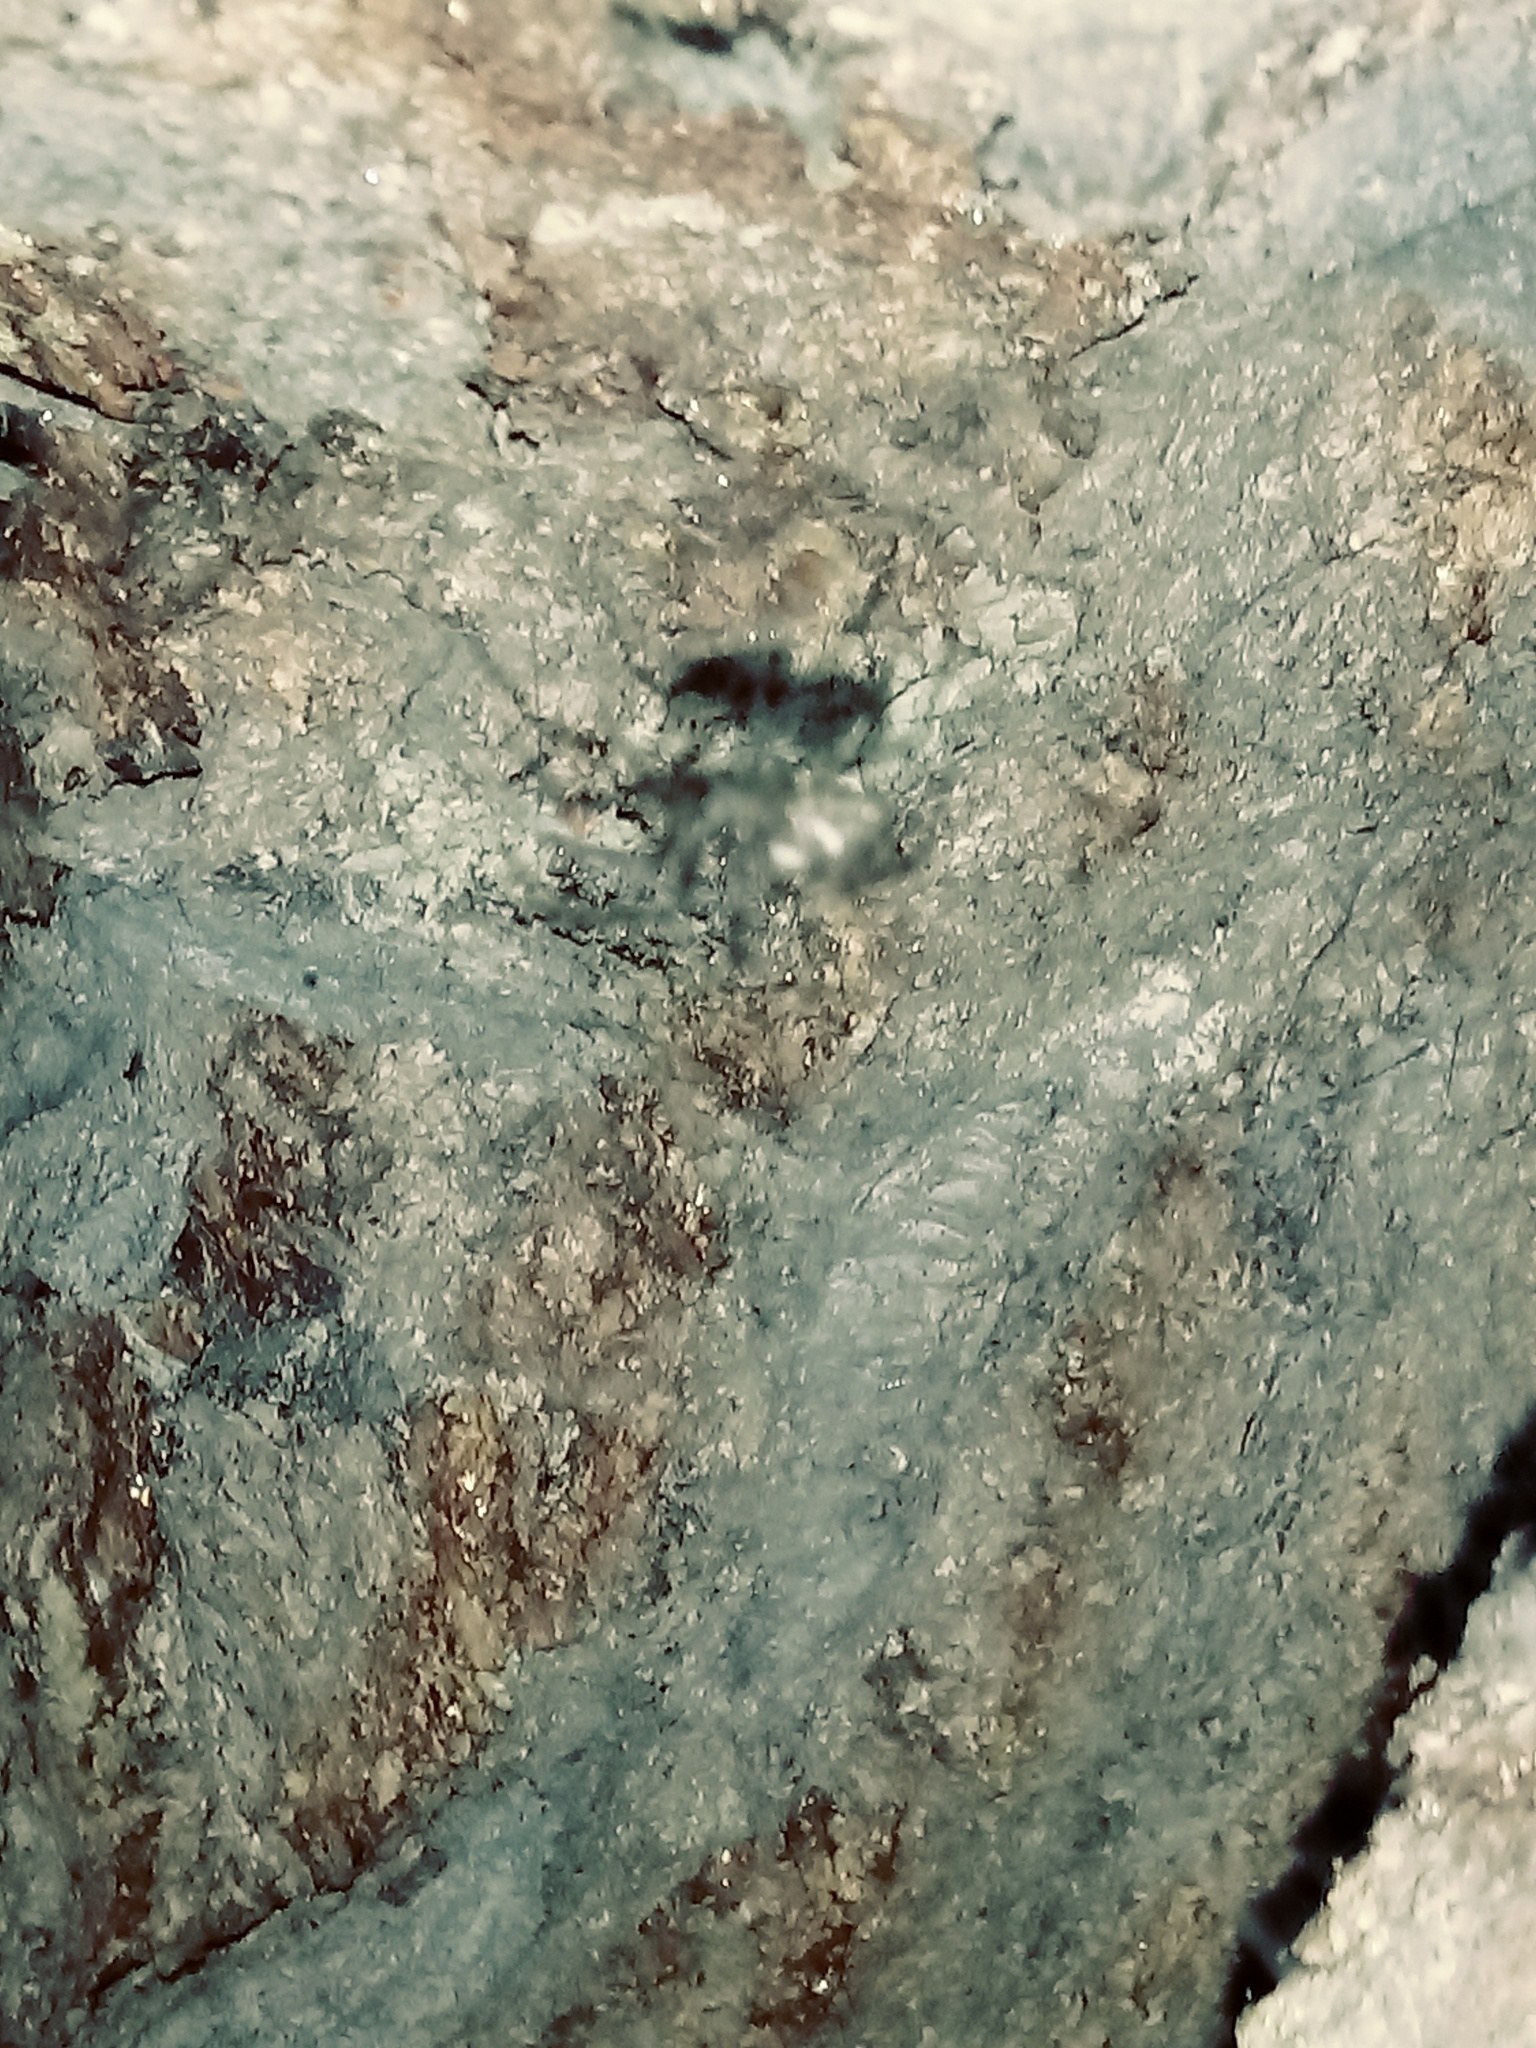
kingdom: Animalia
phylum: Arthropoda
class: Arachnida
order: Araneae
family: Theridiidae
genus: Steatoda
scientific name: Steatoda nobilis
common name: Cobweb weaver
